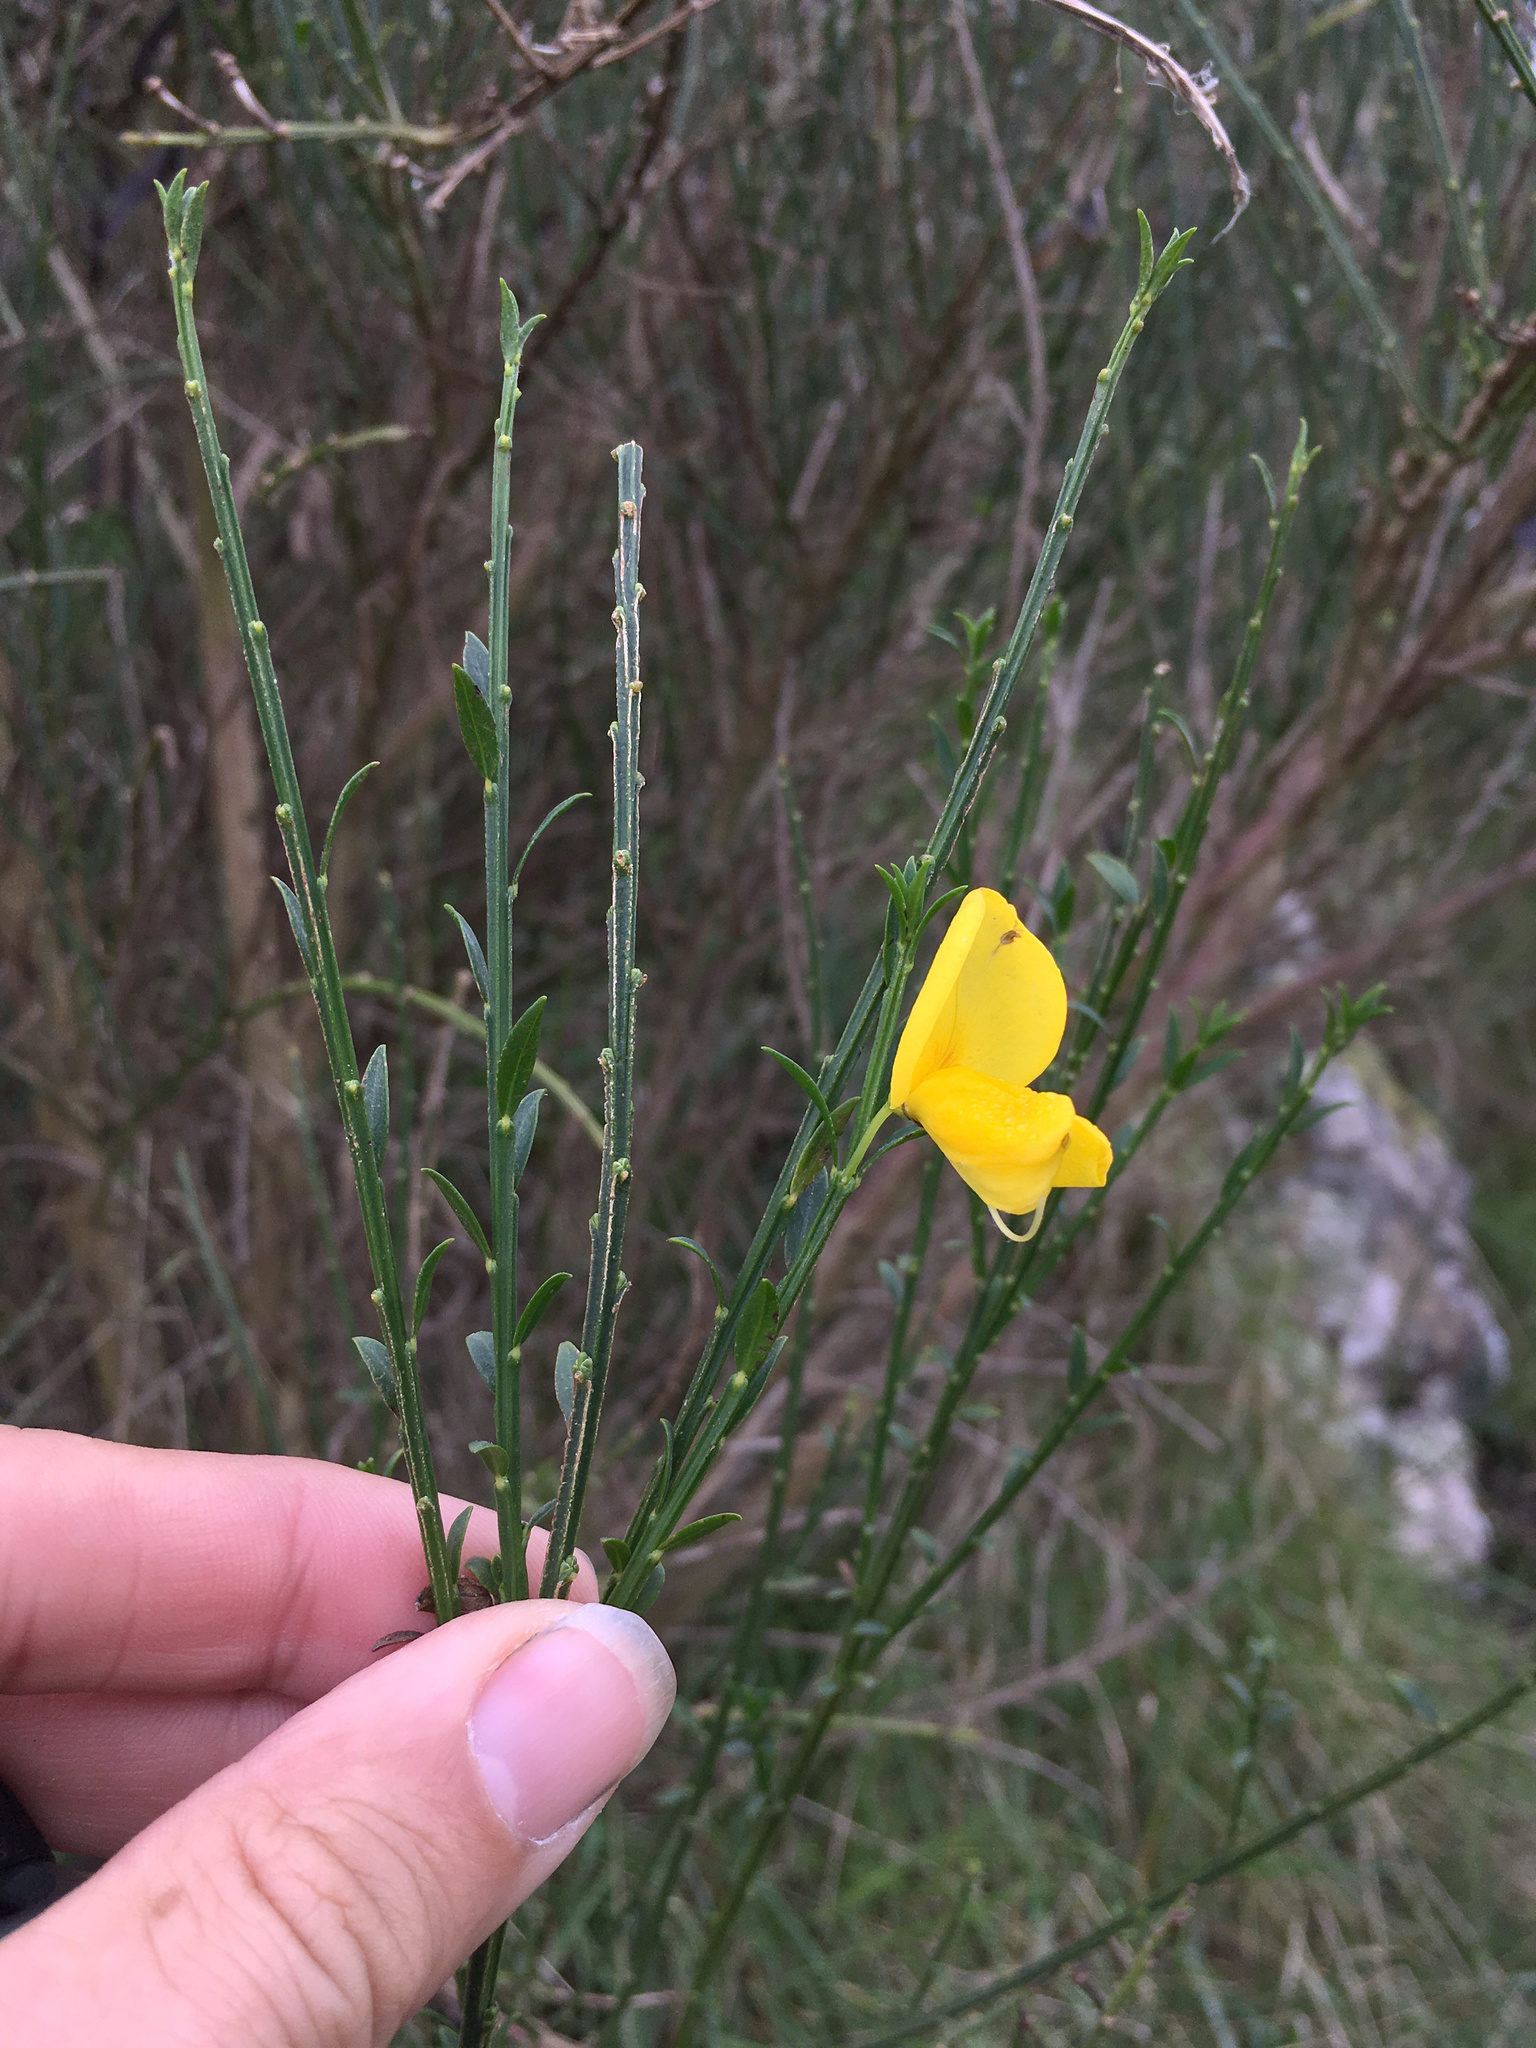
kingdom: Plantae
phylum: Tracheophyta
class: Magnoliopsida
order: Fabales
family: Fabaceae
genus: Cytisus
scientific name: Cytisus scoparius
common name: Scotch broom
